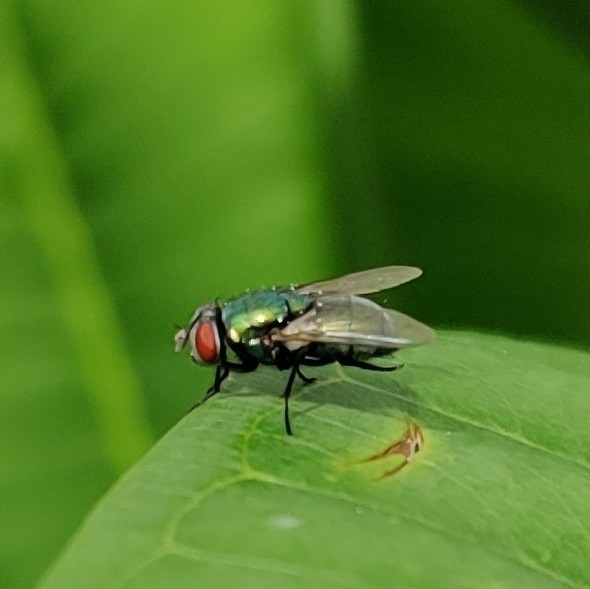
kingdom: Animalia
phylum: Arthropoda
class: Insecta
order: Diptera
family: Calliphoridae
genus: Lucilia
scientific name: Lucilia sericata
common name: Blow fly
